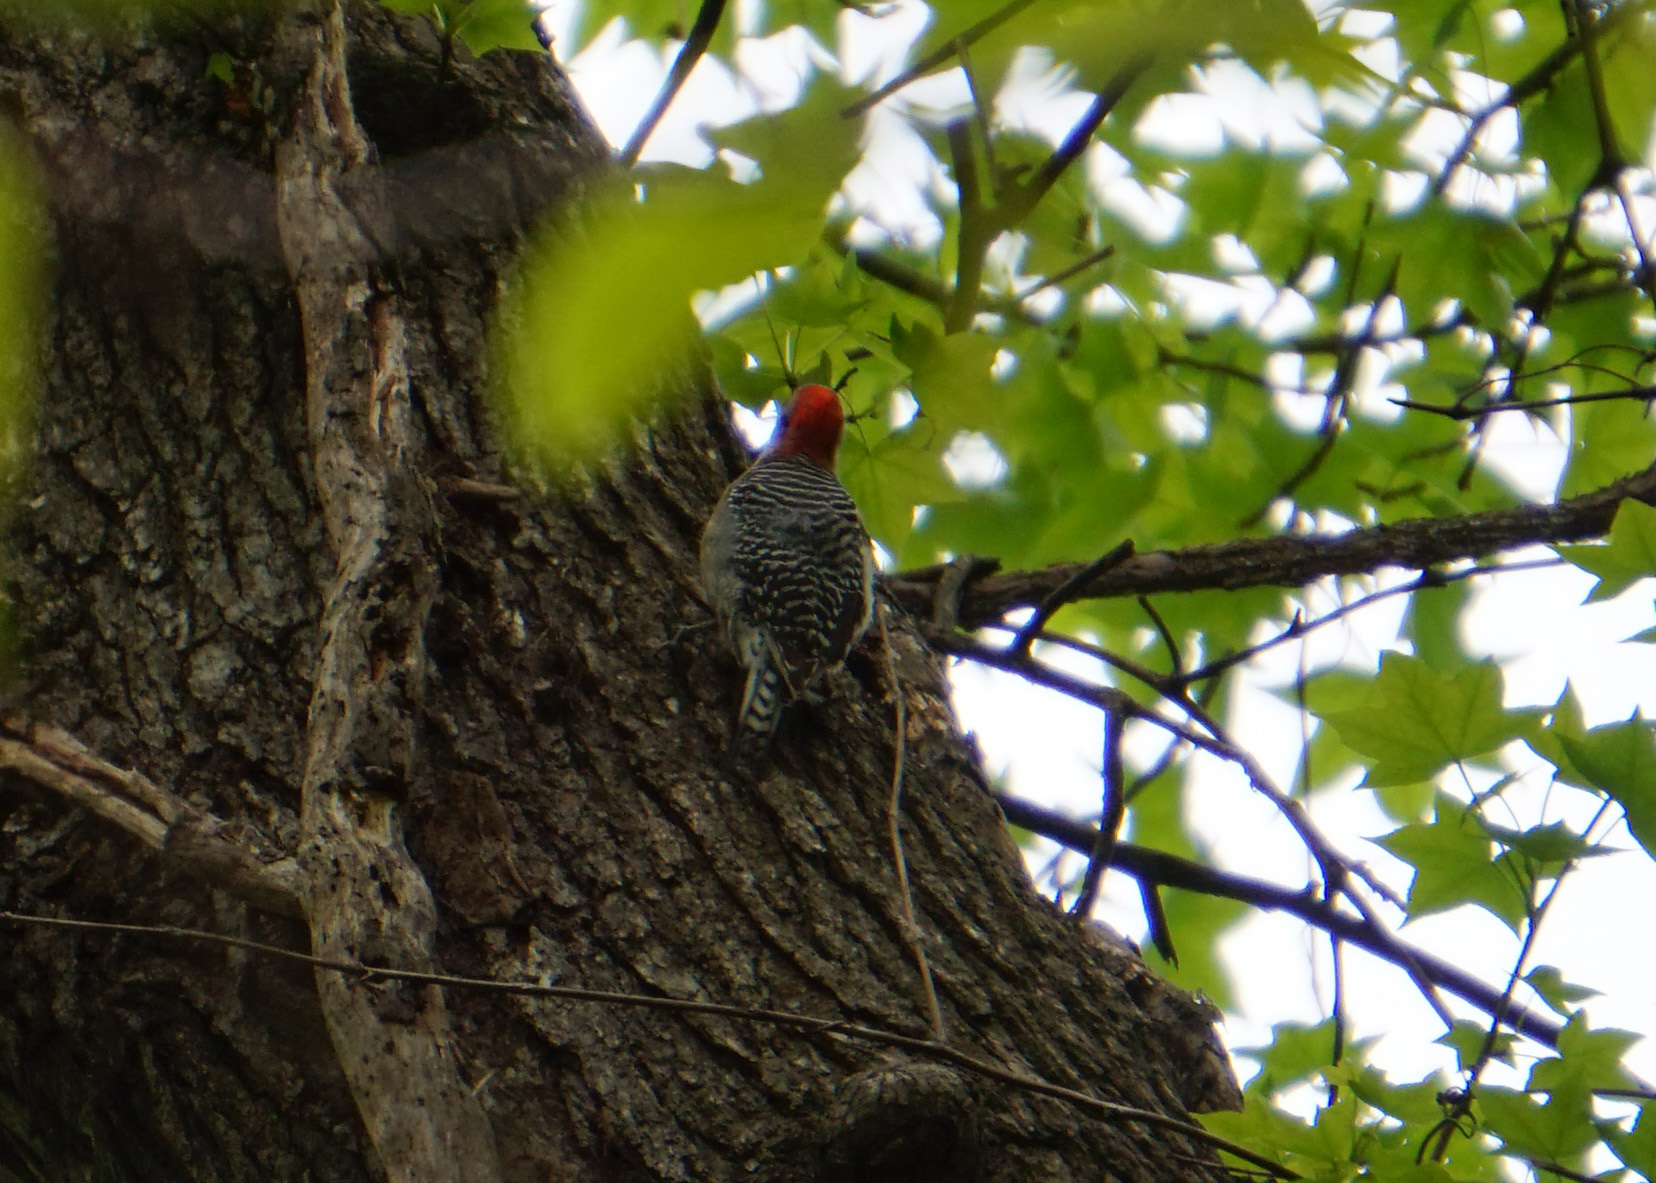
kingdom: Animalia
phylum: Chordata
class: Aves
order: Piciformes
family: Picidae
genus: Melanerpes
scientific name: Melanerpes carolinus
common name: Red-bellied woodpecker
